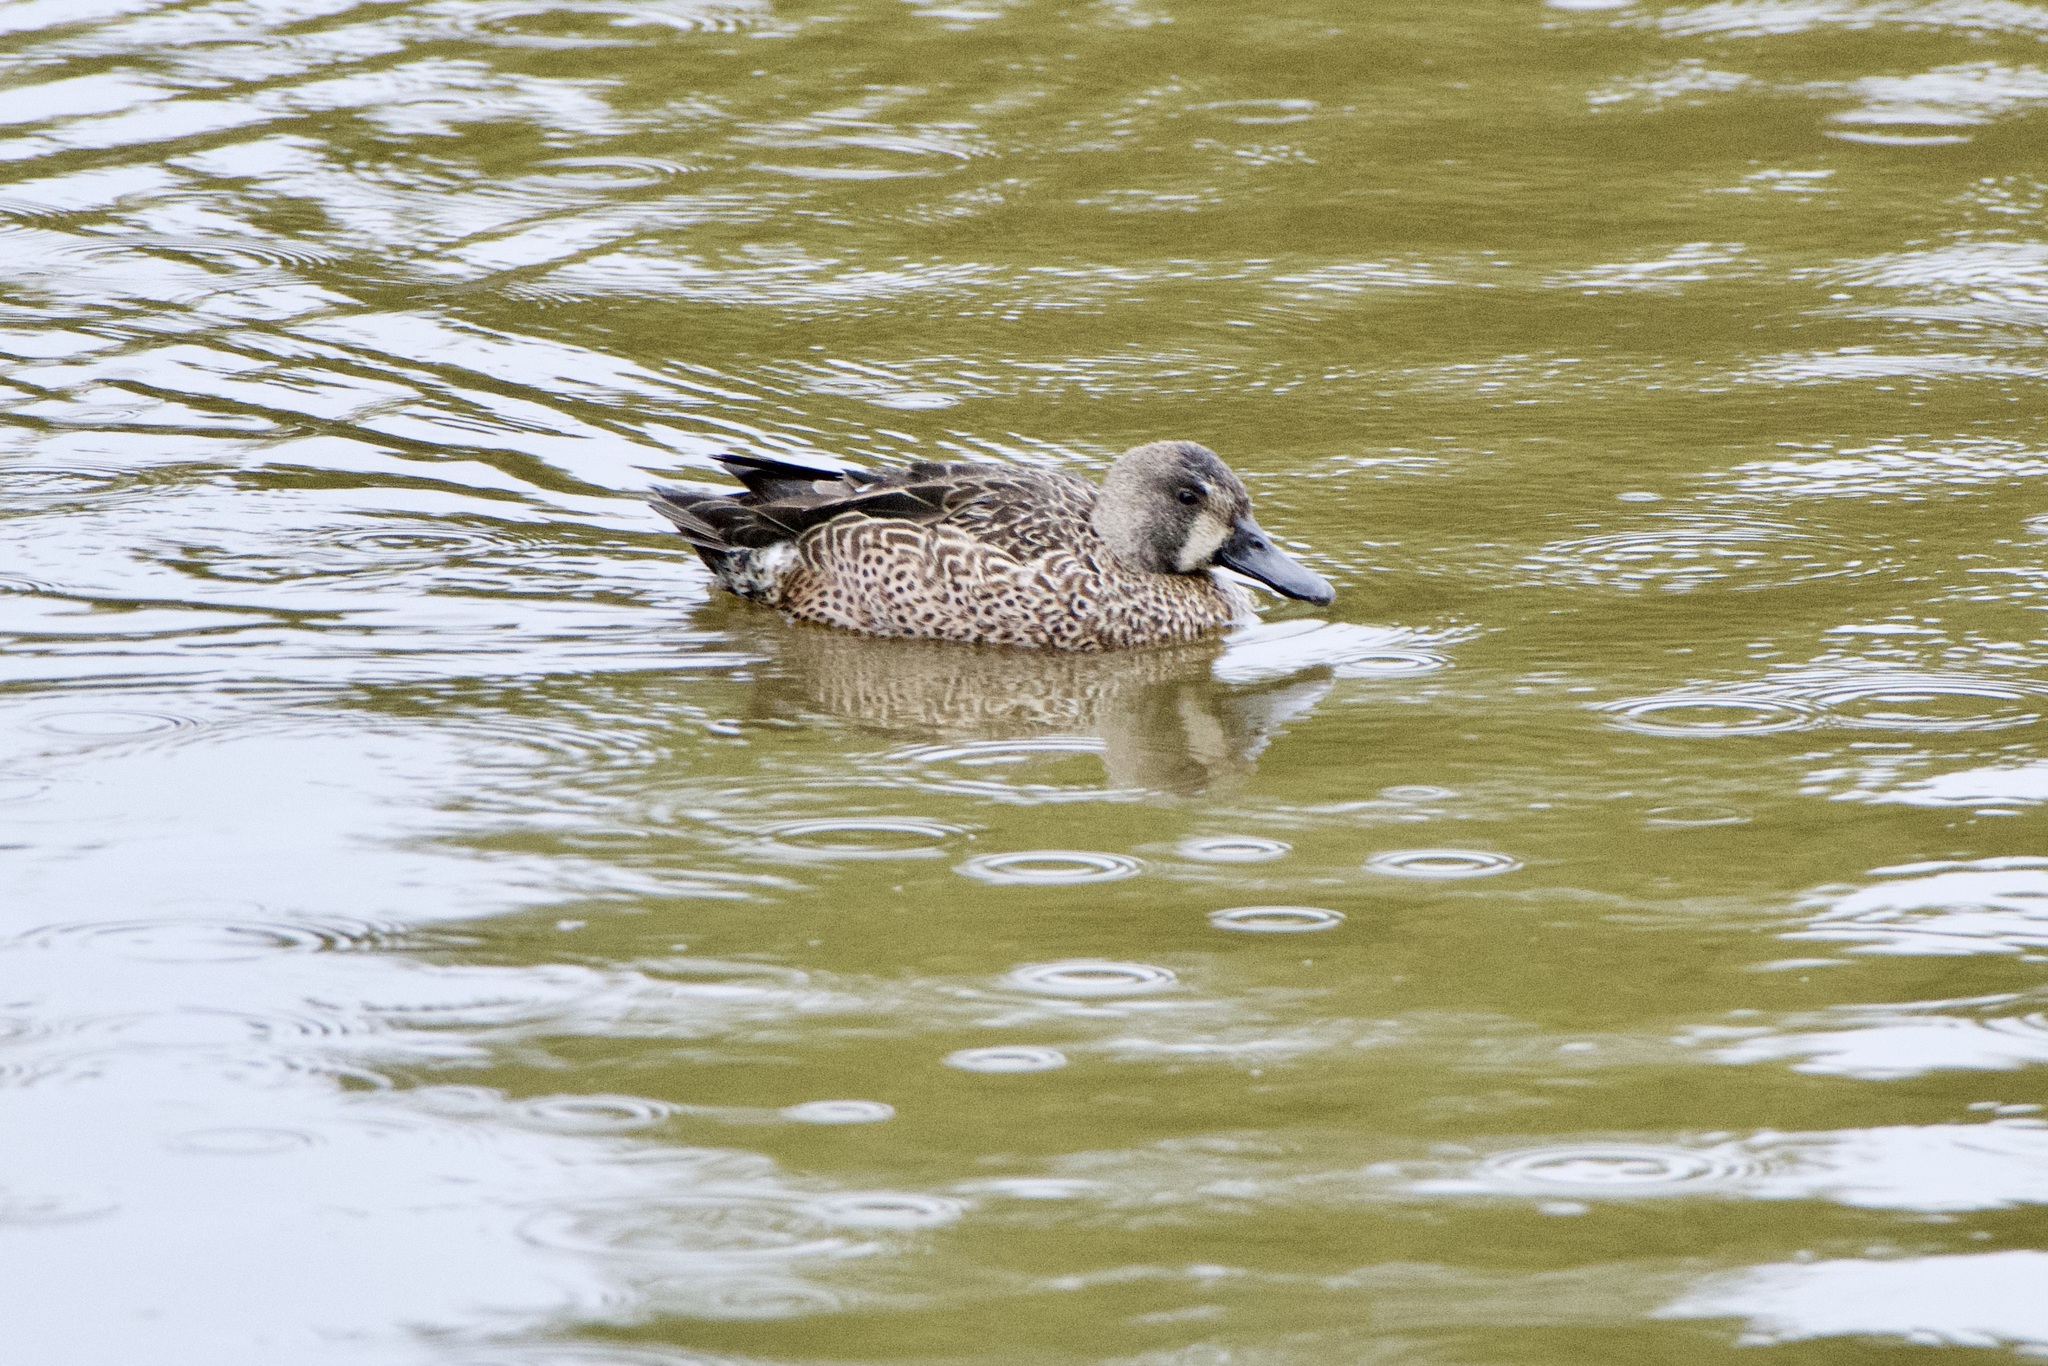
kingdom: Animalia
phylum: Chordata
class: Aves
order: Anseriformes
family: Anatidae
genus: Spatula
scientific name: Spatula discors
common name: Blue-winged teal
